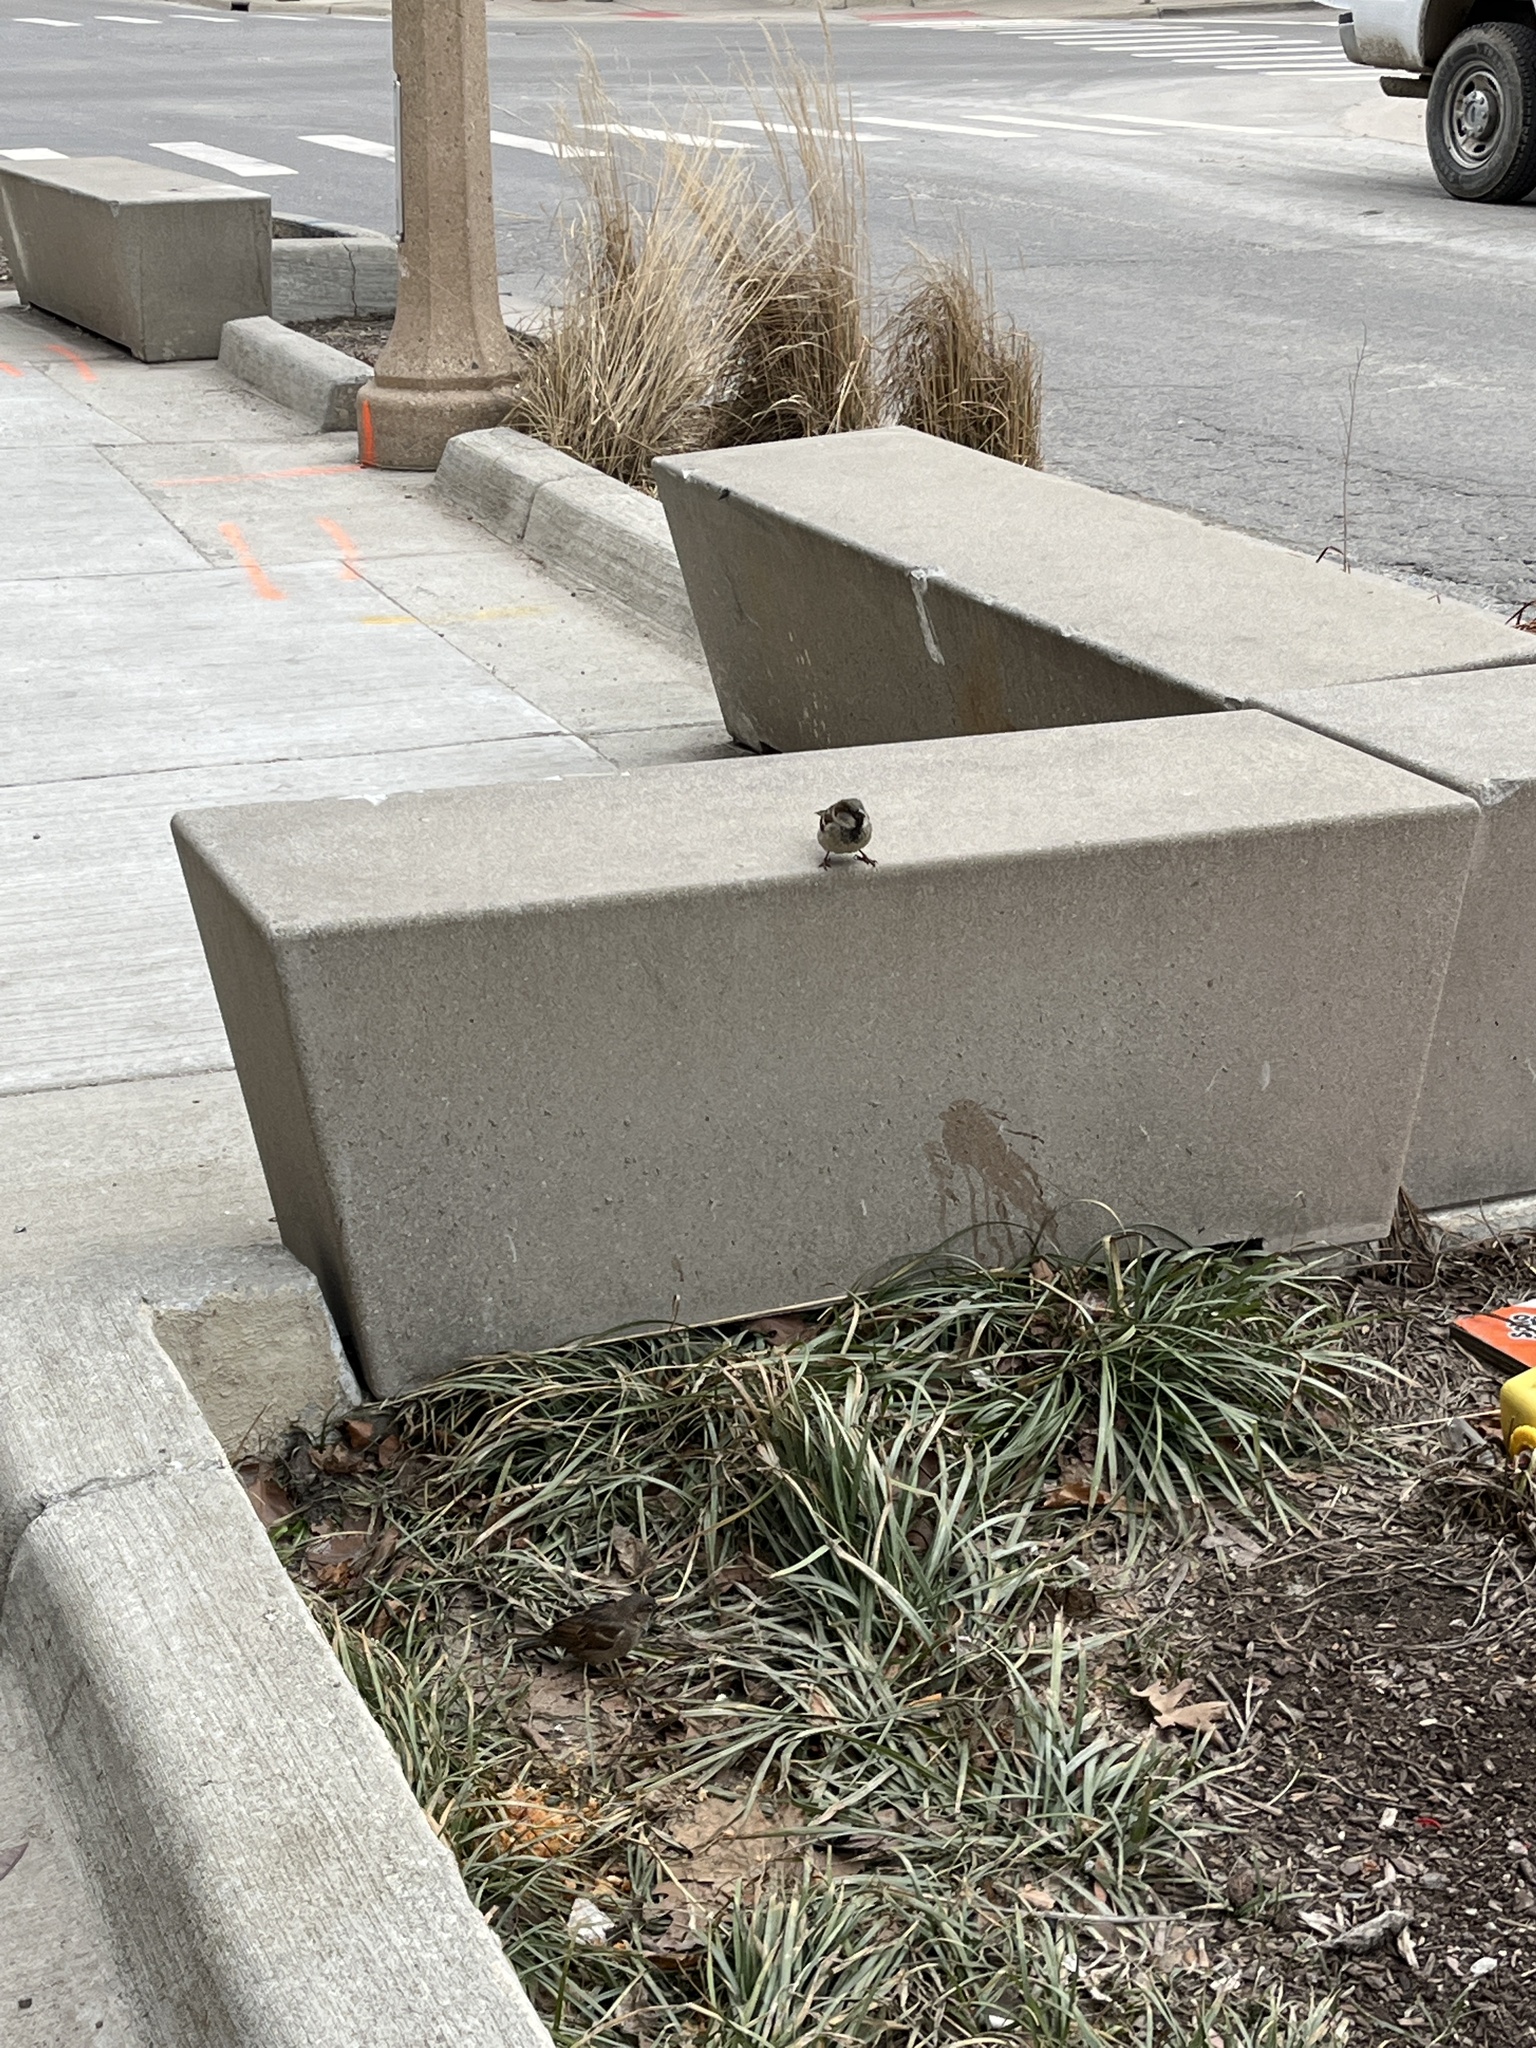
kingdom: Animalia
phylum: Chordata
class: Aves
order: Passeriformes
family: Passeridae
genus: Passer
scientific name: Passer domesticus
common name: House sparrow
